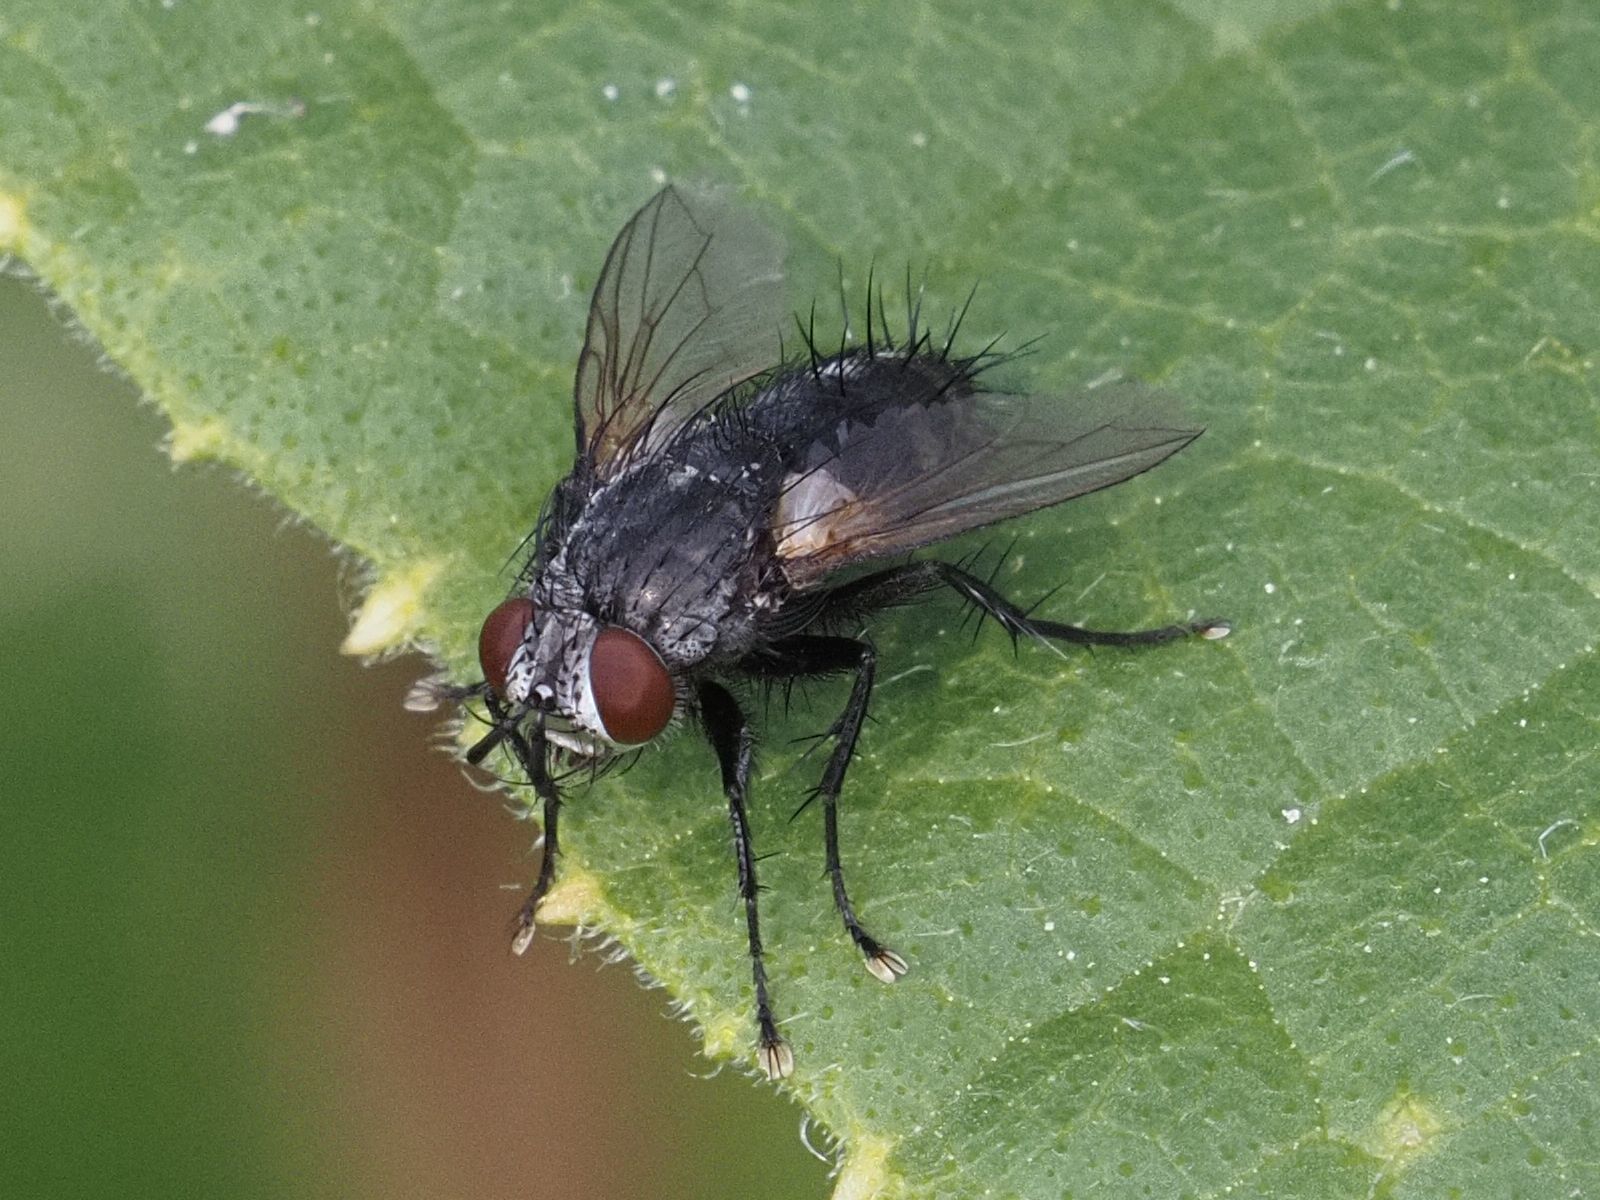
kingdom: Animalia
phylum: Arthropoda
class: Insecta
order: Diptera
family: Tachinidae
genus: Voria
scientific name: Voria ruralis
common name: Parasitic fly
